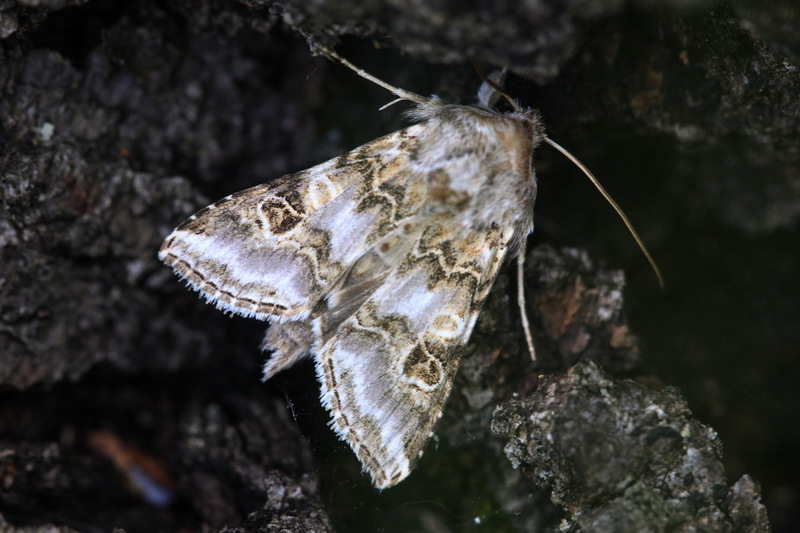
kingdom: Animalia
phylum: Arthropoda
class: Insecta
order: Lepidoptera
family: Noctuidae
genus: Cucullia
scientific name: Cucullia spectabilisoides
